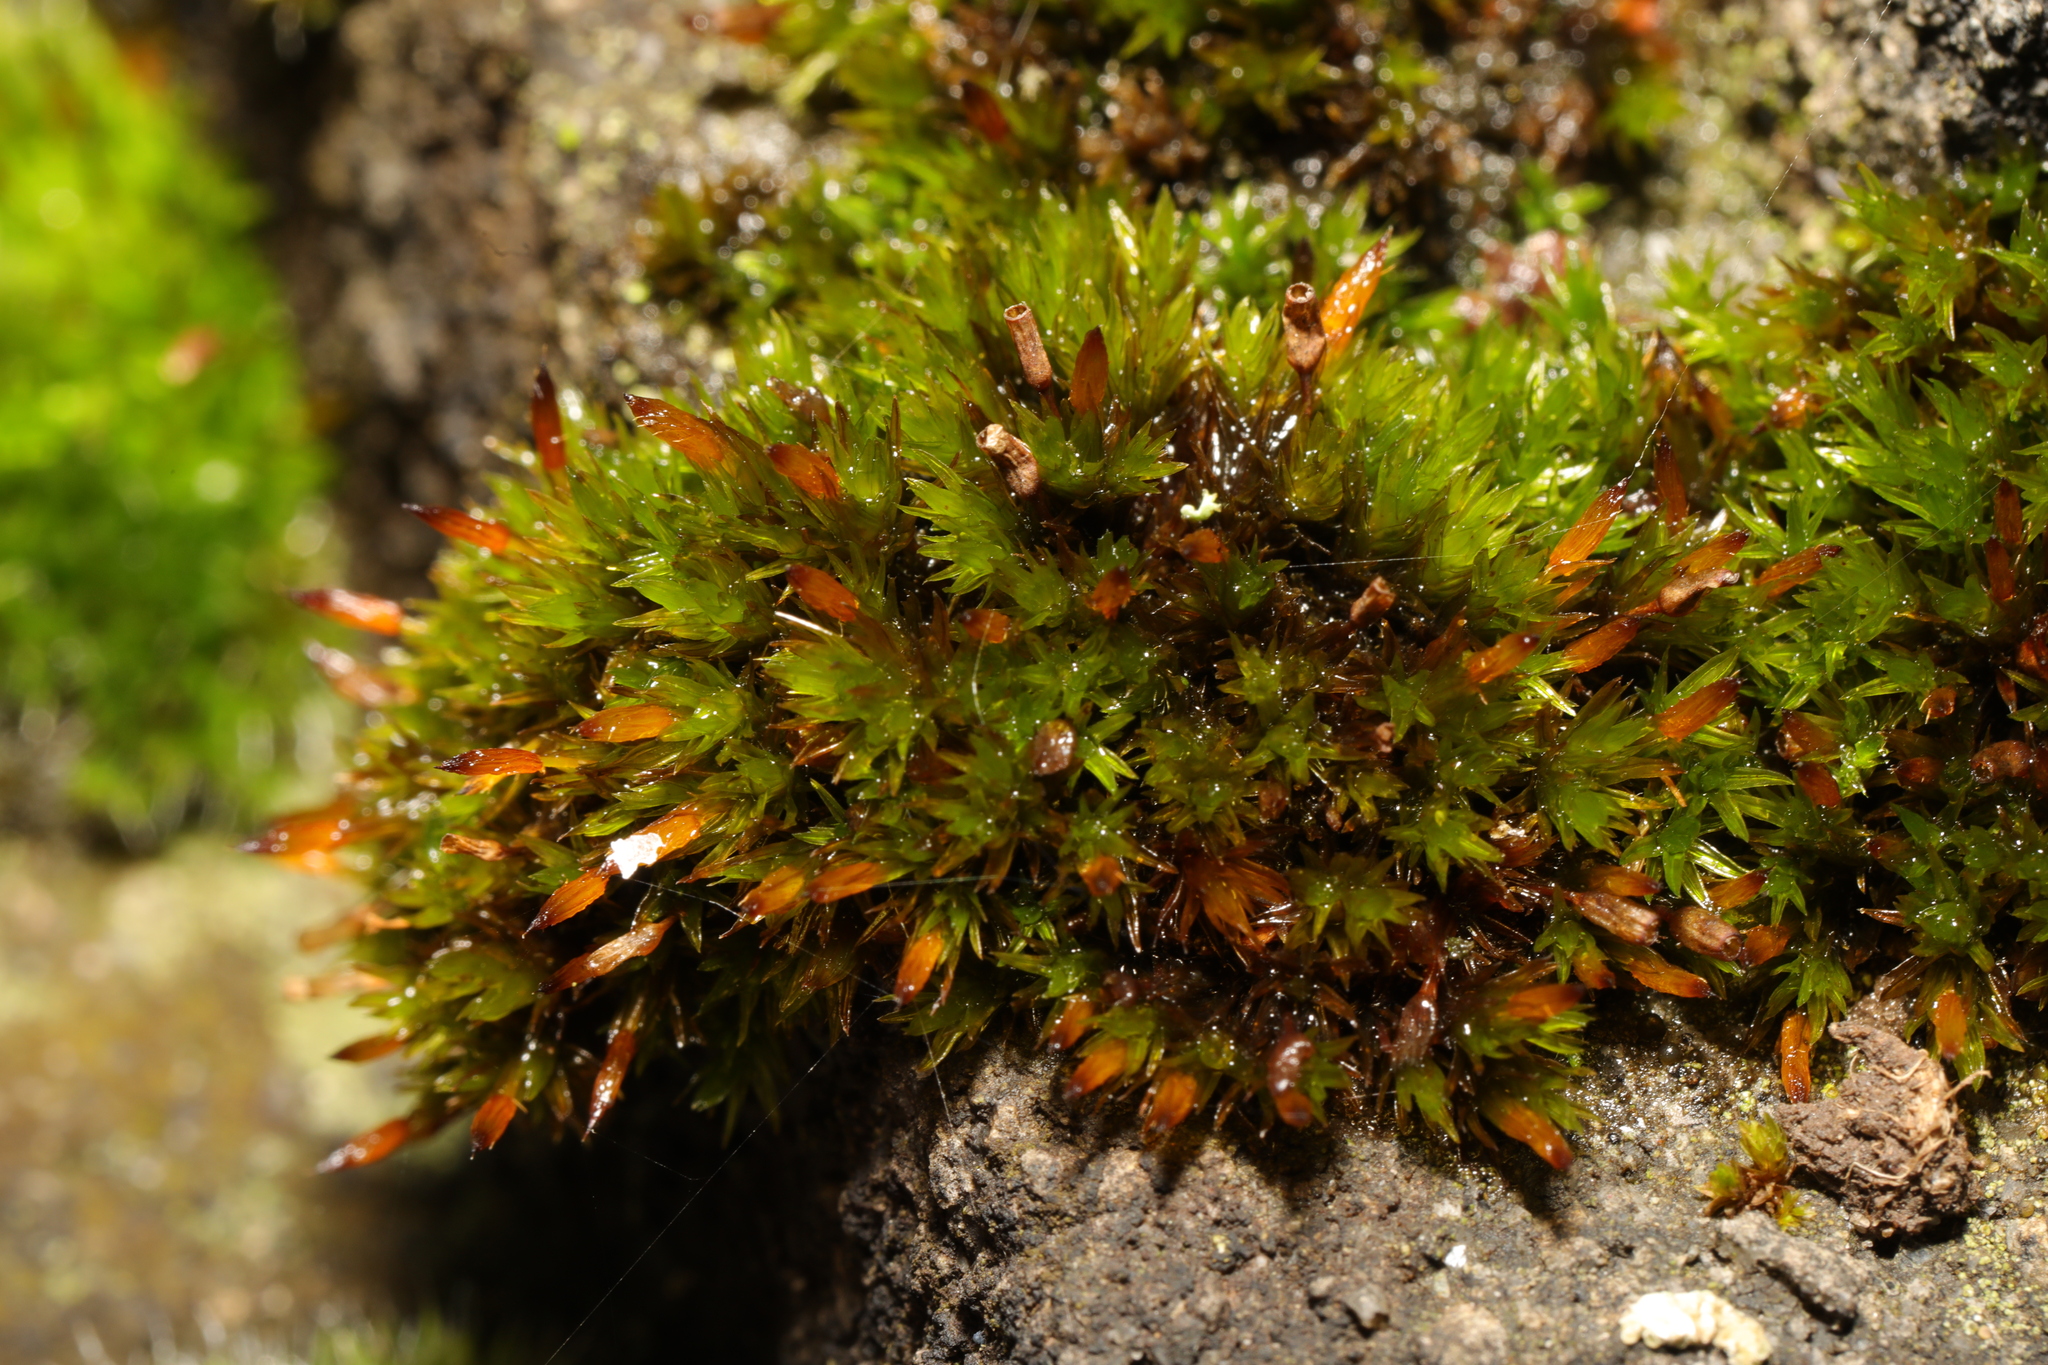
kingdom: Plantae
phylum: Bryophyta
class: Bryopsida
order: Orthotrichales
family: Orthotrichaceae
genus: Orthotrichum
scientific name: Orthotrichum anomalum
